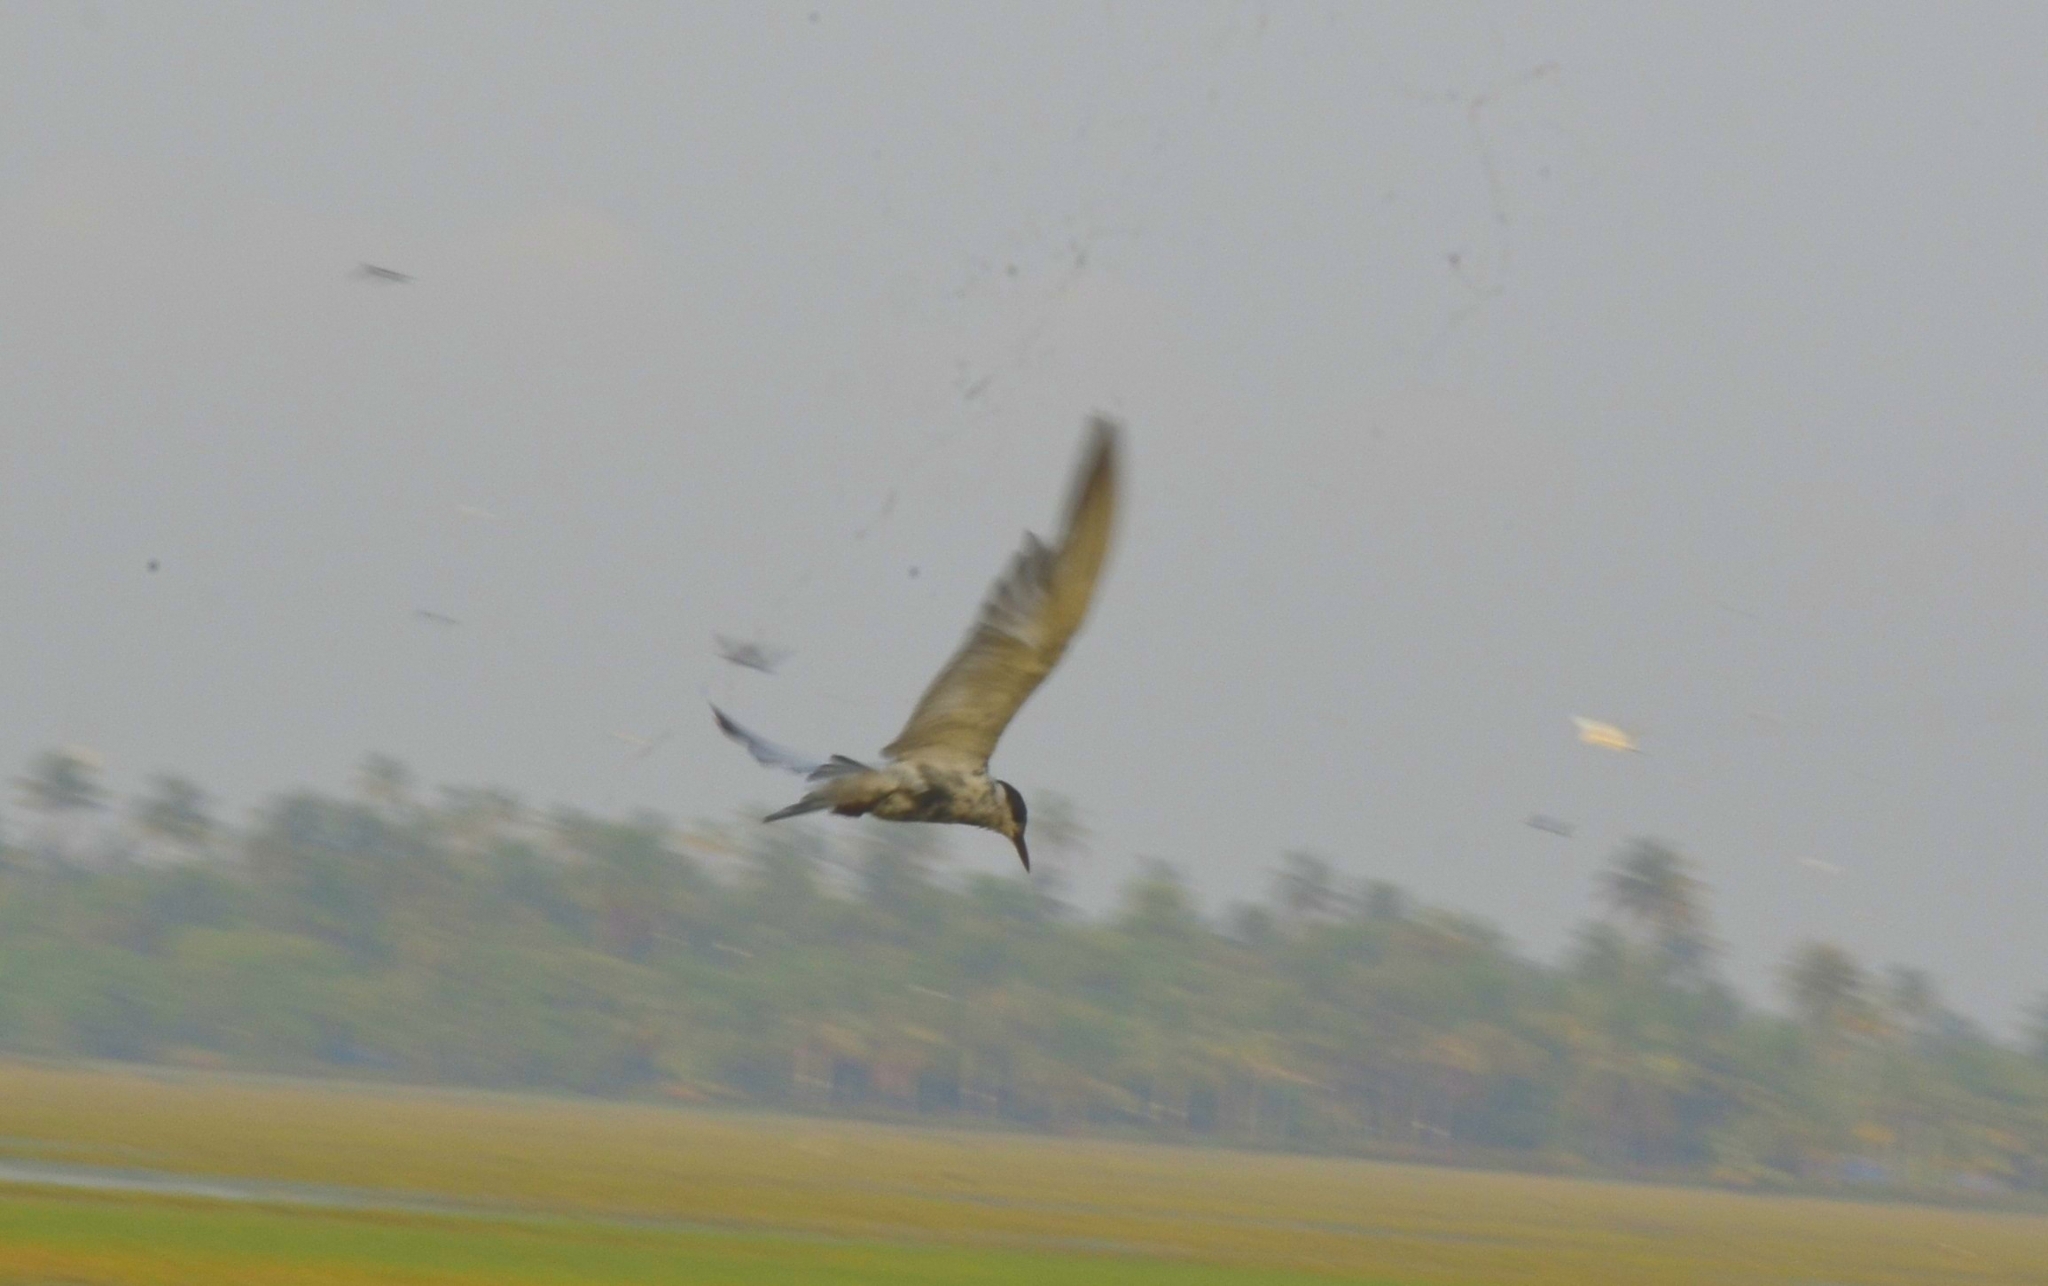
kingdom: Animalia
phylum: Chordata
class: Aves
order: Charadriiformes
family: Laridae
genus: Chlidonias
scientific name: Chlidonias hybrida
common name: Whiskered tern
